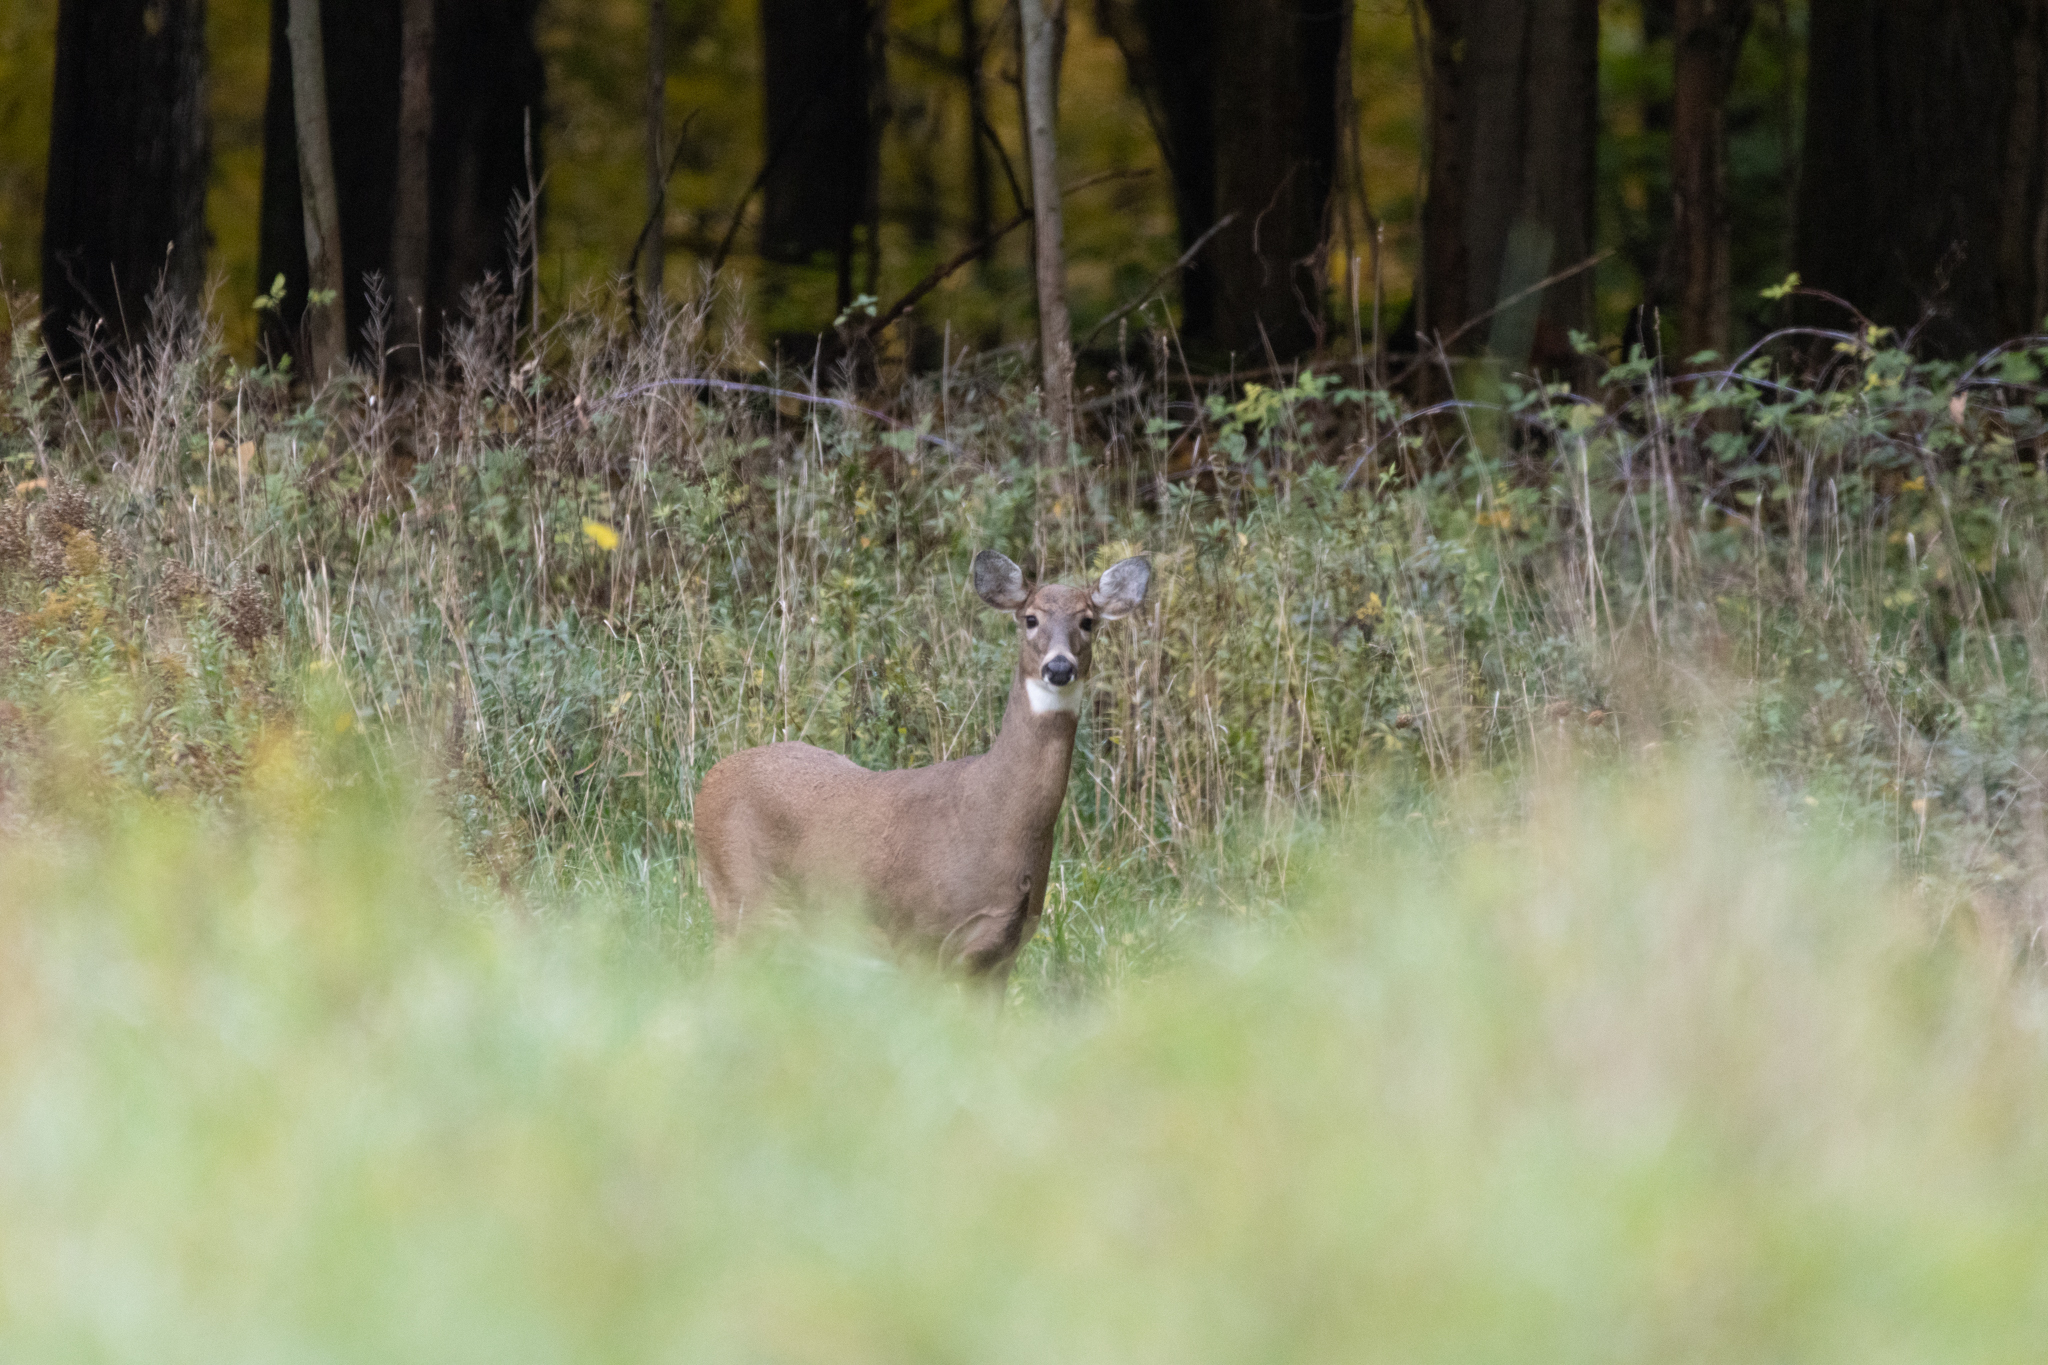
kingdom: Animalia
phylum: Chordata
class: Mammalia
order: Artiodactyla
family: Cervidae
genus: Odocoileus
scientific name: Odocoileus virginianus
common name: White-tailed deer
